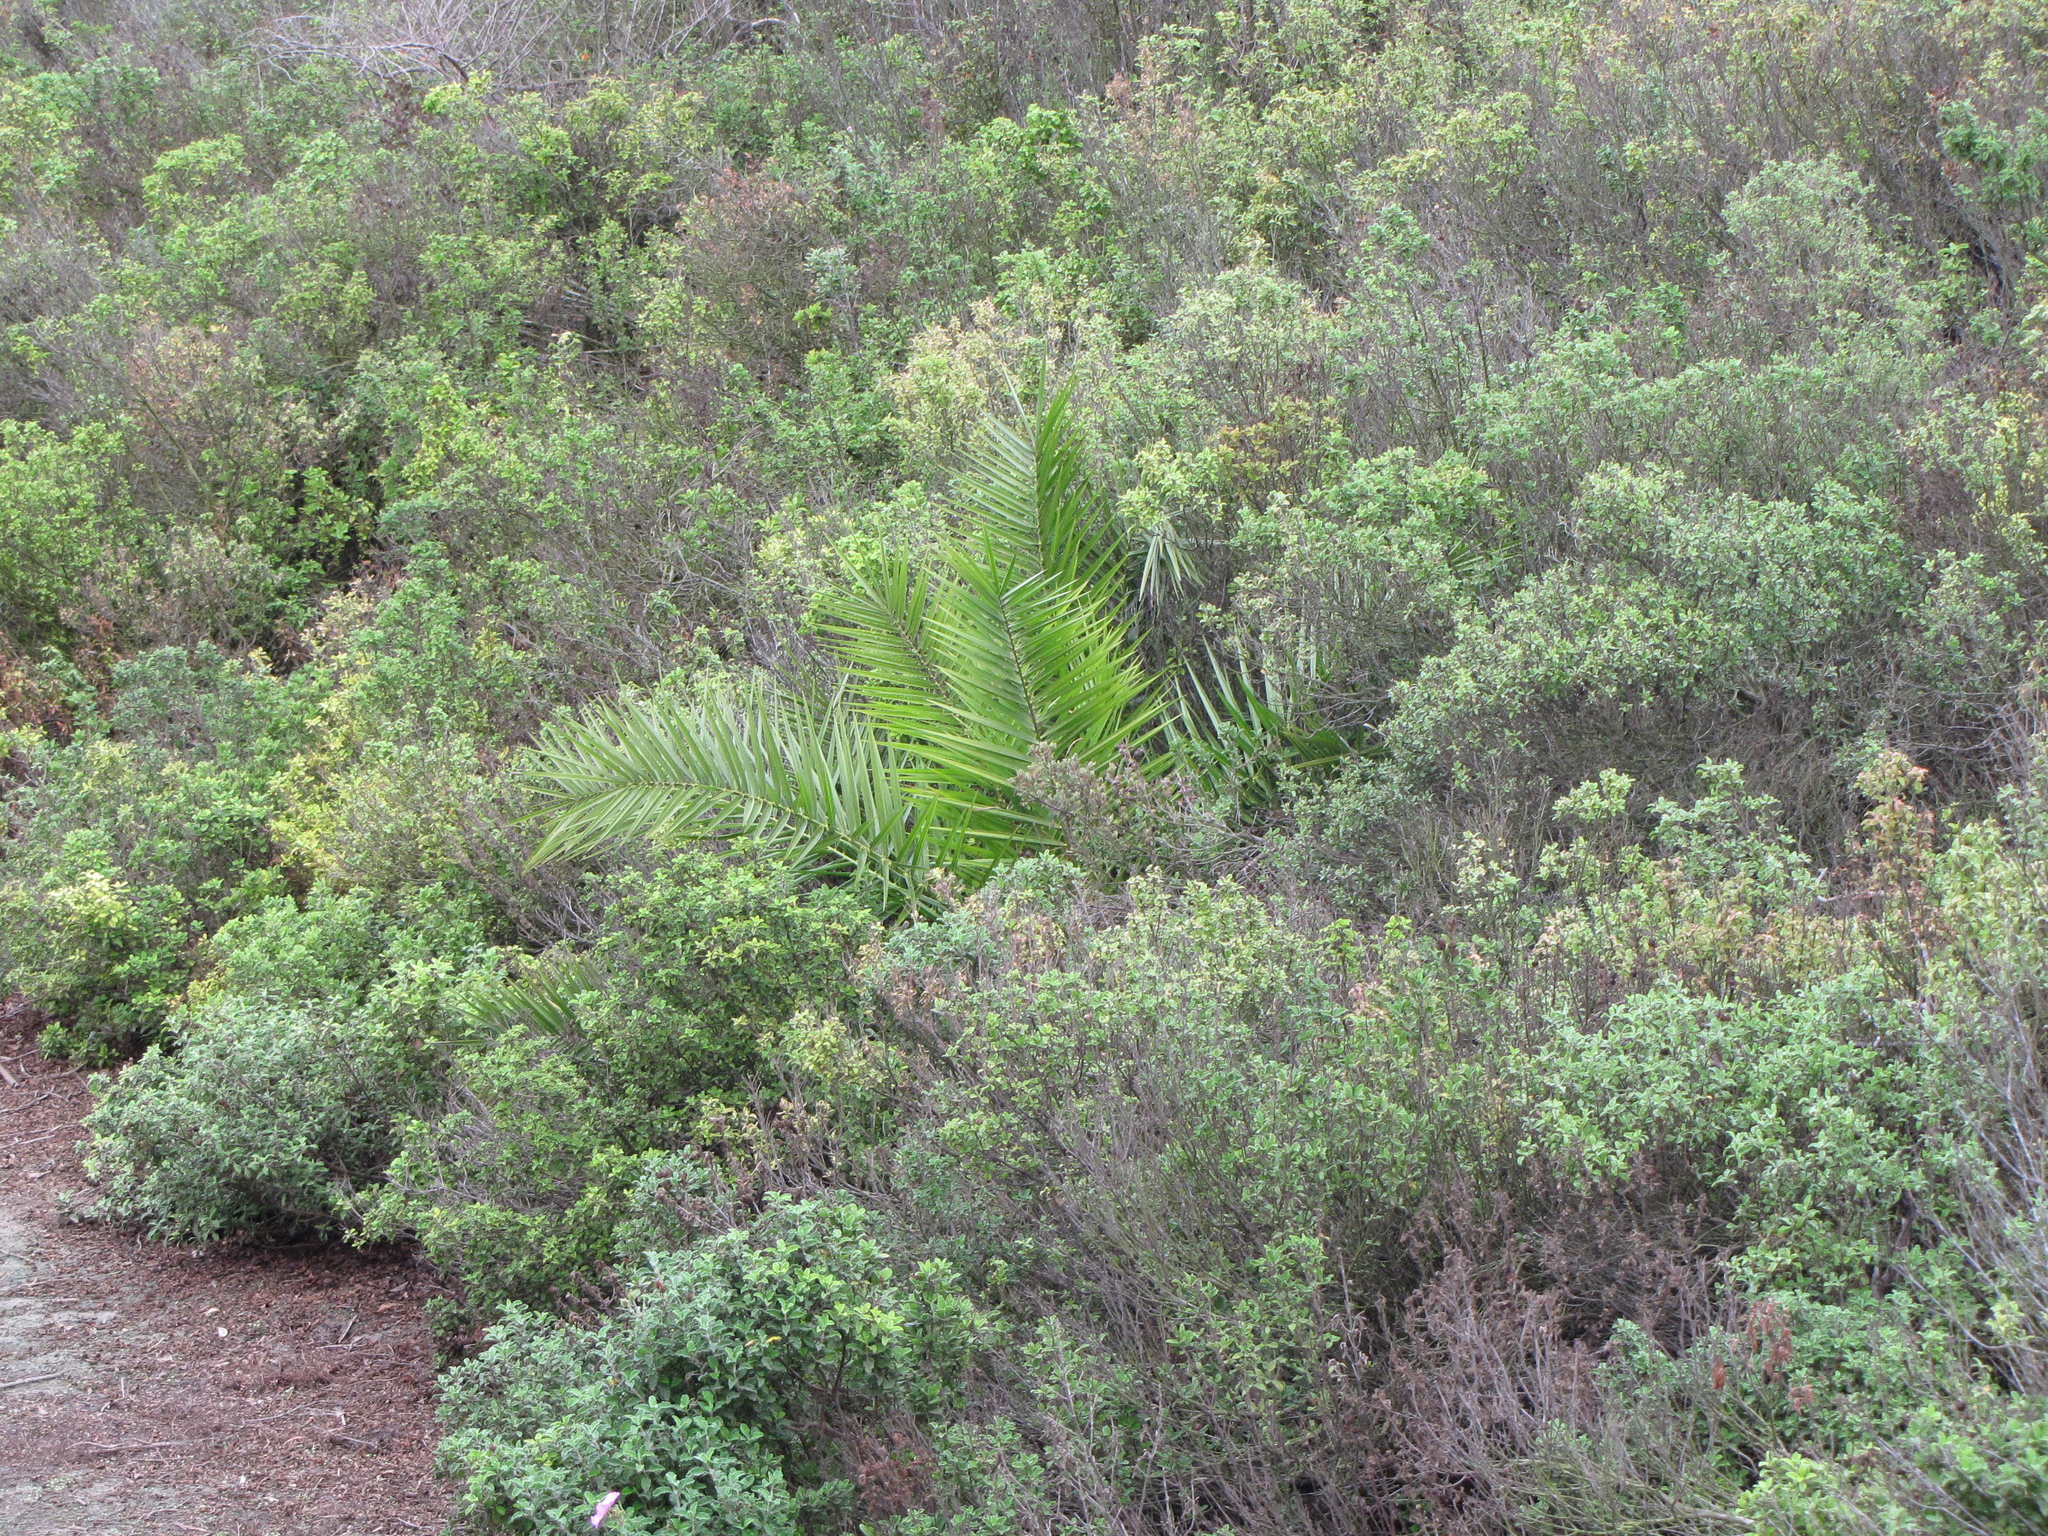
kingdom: Plantae
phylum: Tracheophyta
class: Liliopsida
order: Arecales
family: Arecaceae
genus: Phoenix
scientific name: Phoenix canariensis
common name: Canary island date palm
